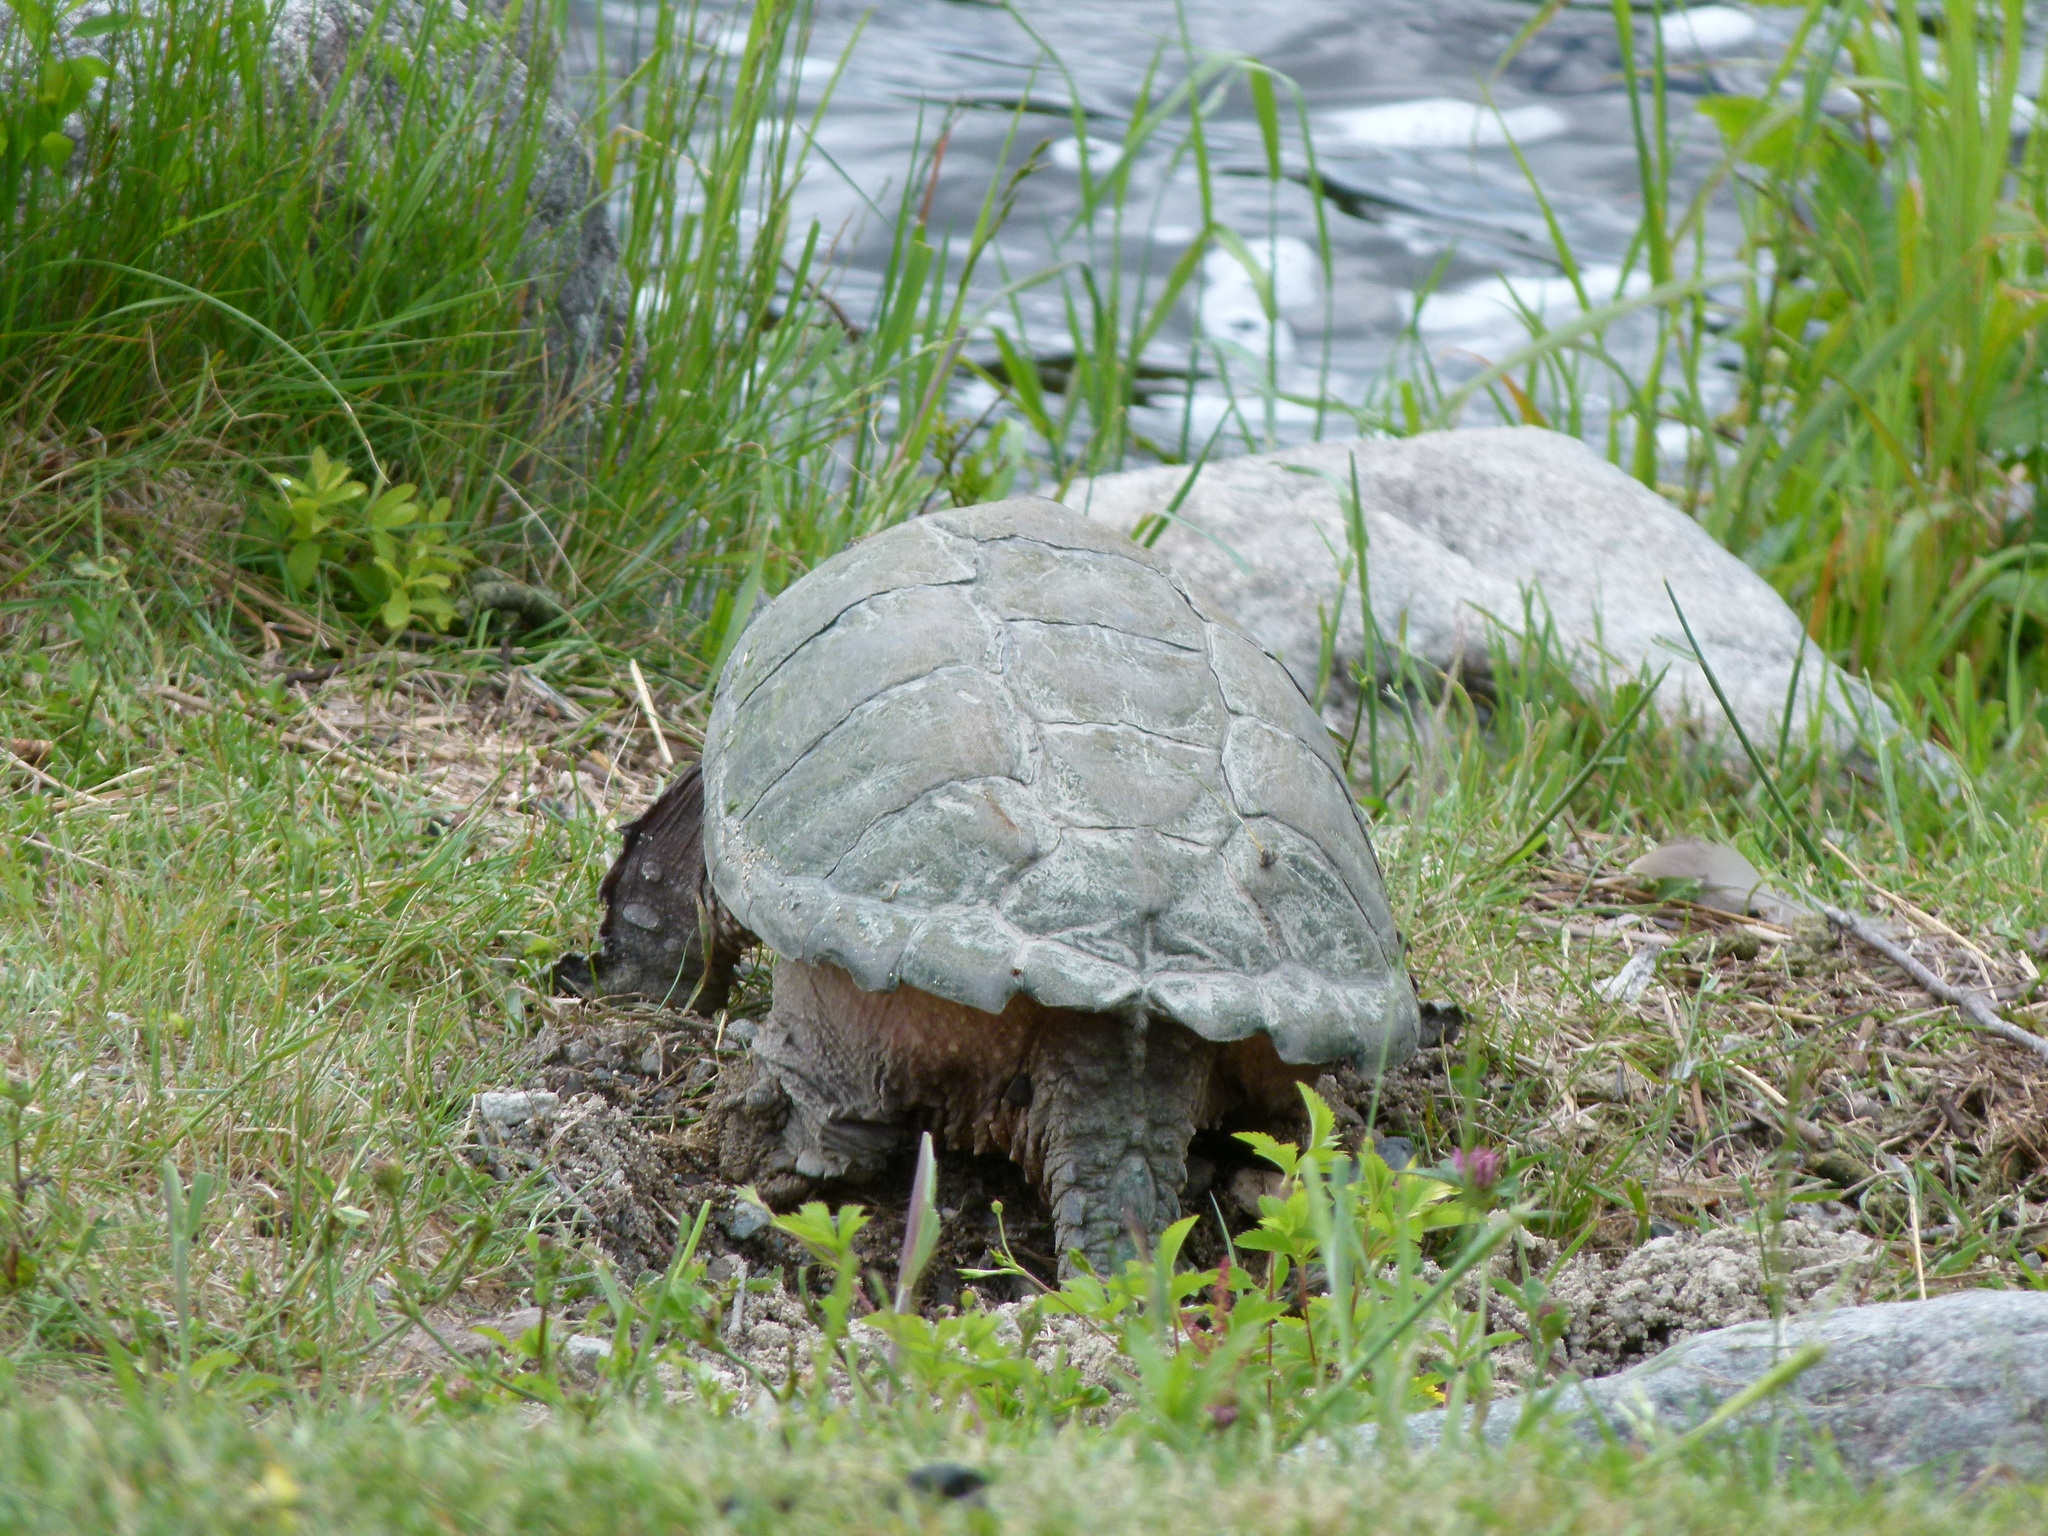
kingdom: Animalia
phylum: Chordata
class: Testudines
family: Chelydridae
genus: Chelydra
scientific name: Chelydra serpentina
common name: Common snapping turtle
